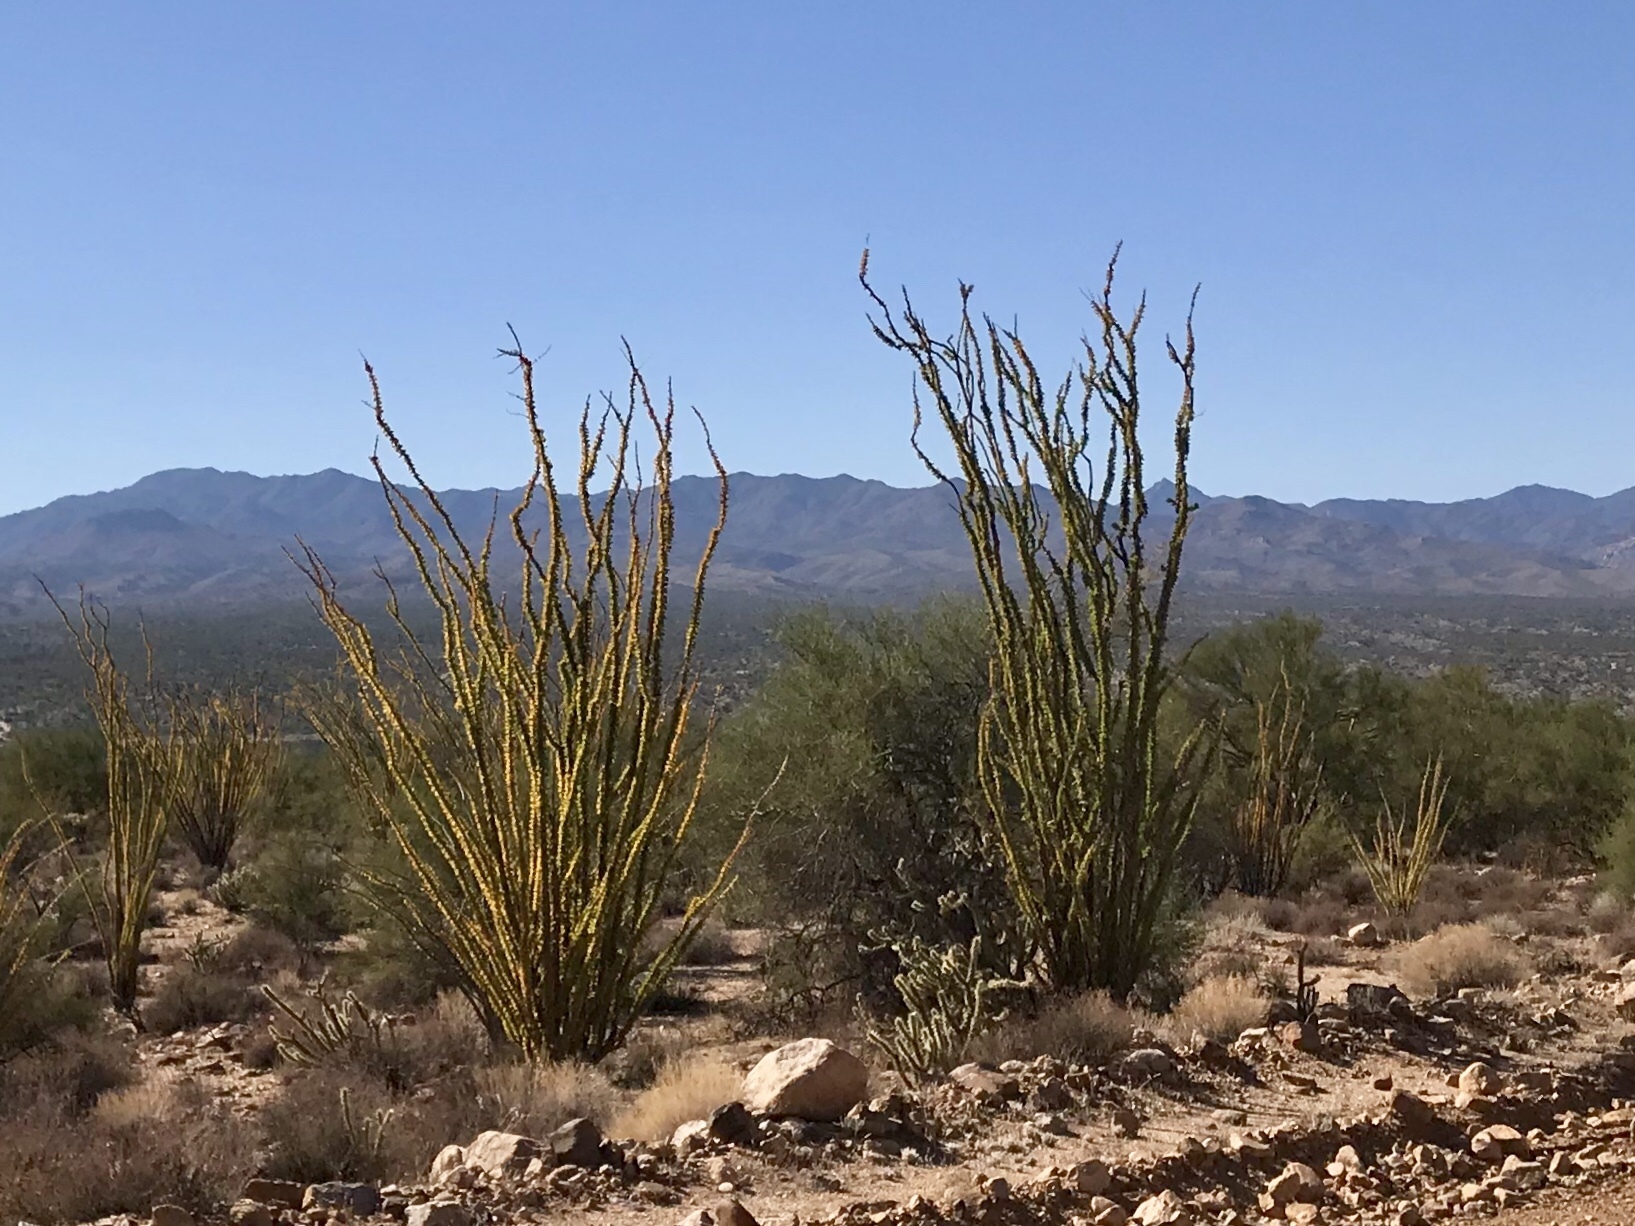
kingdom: Plantae
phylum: Tracheophyta
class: Magnoliopsida
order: Ericales
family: Fouquieriaceae
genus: Fouquieria
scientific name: Fouquieria splendens
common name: Vine-cactus
